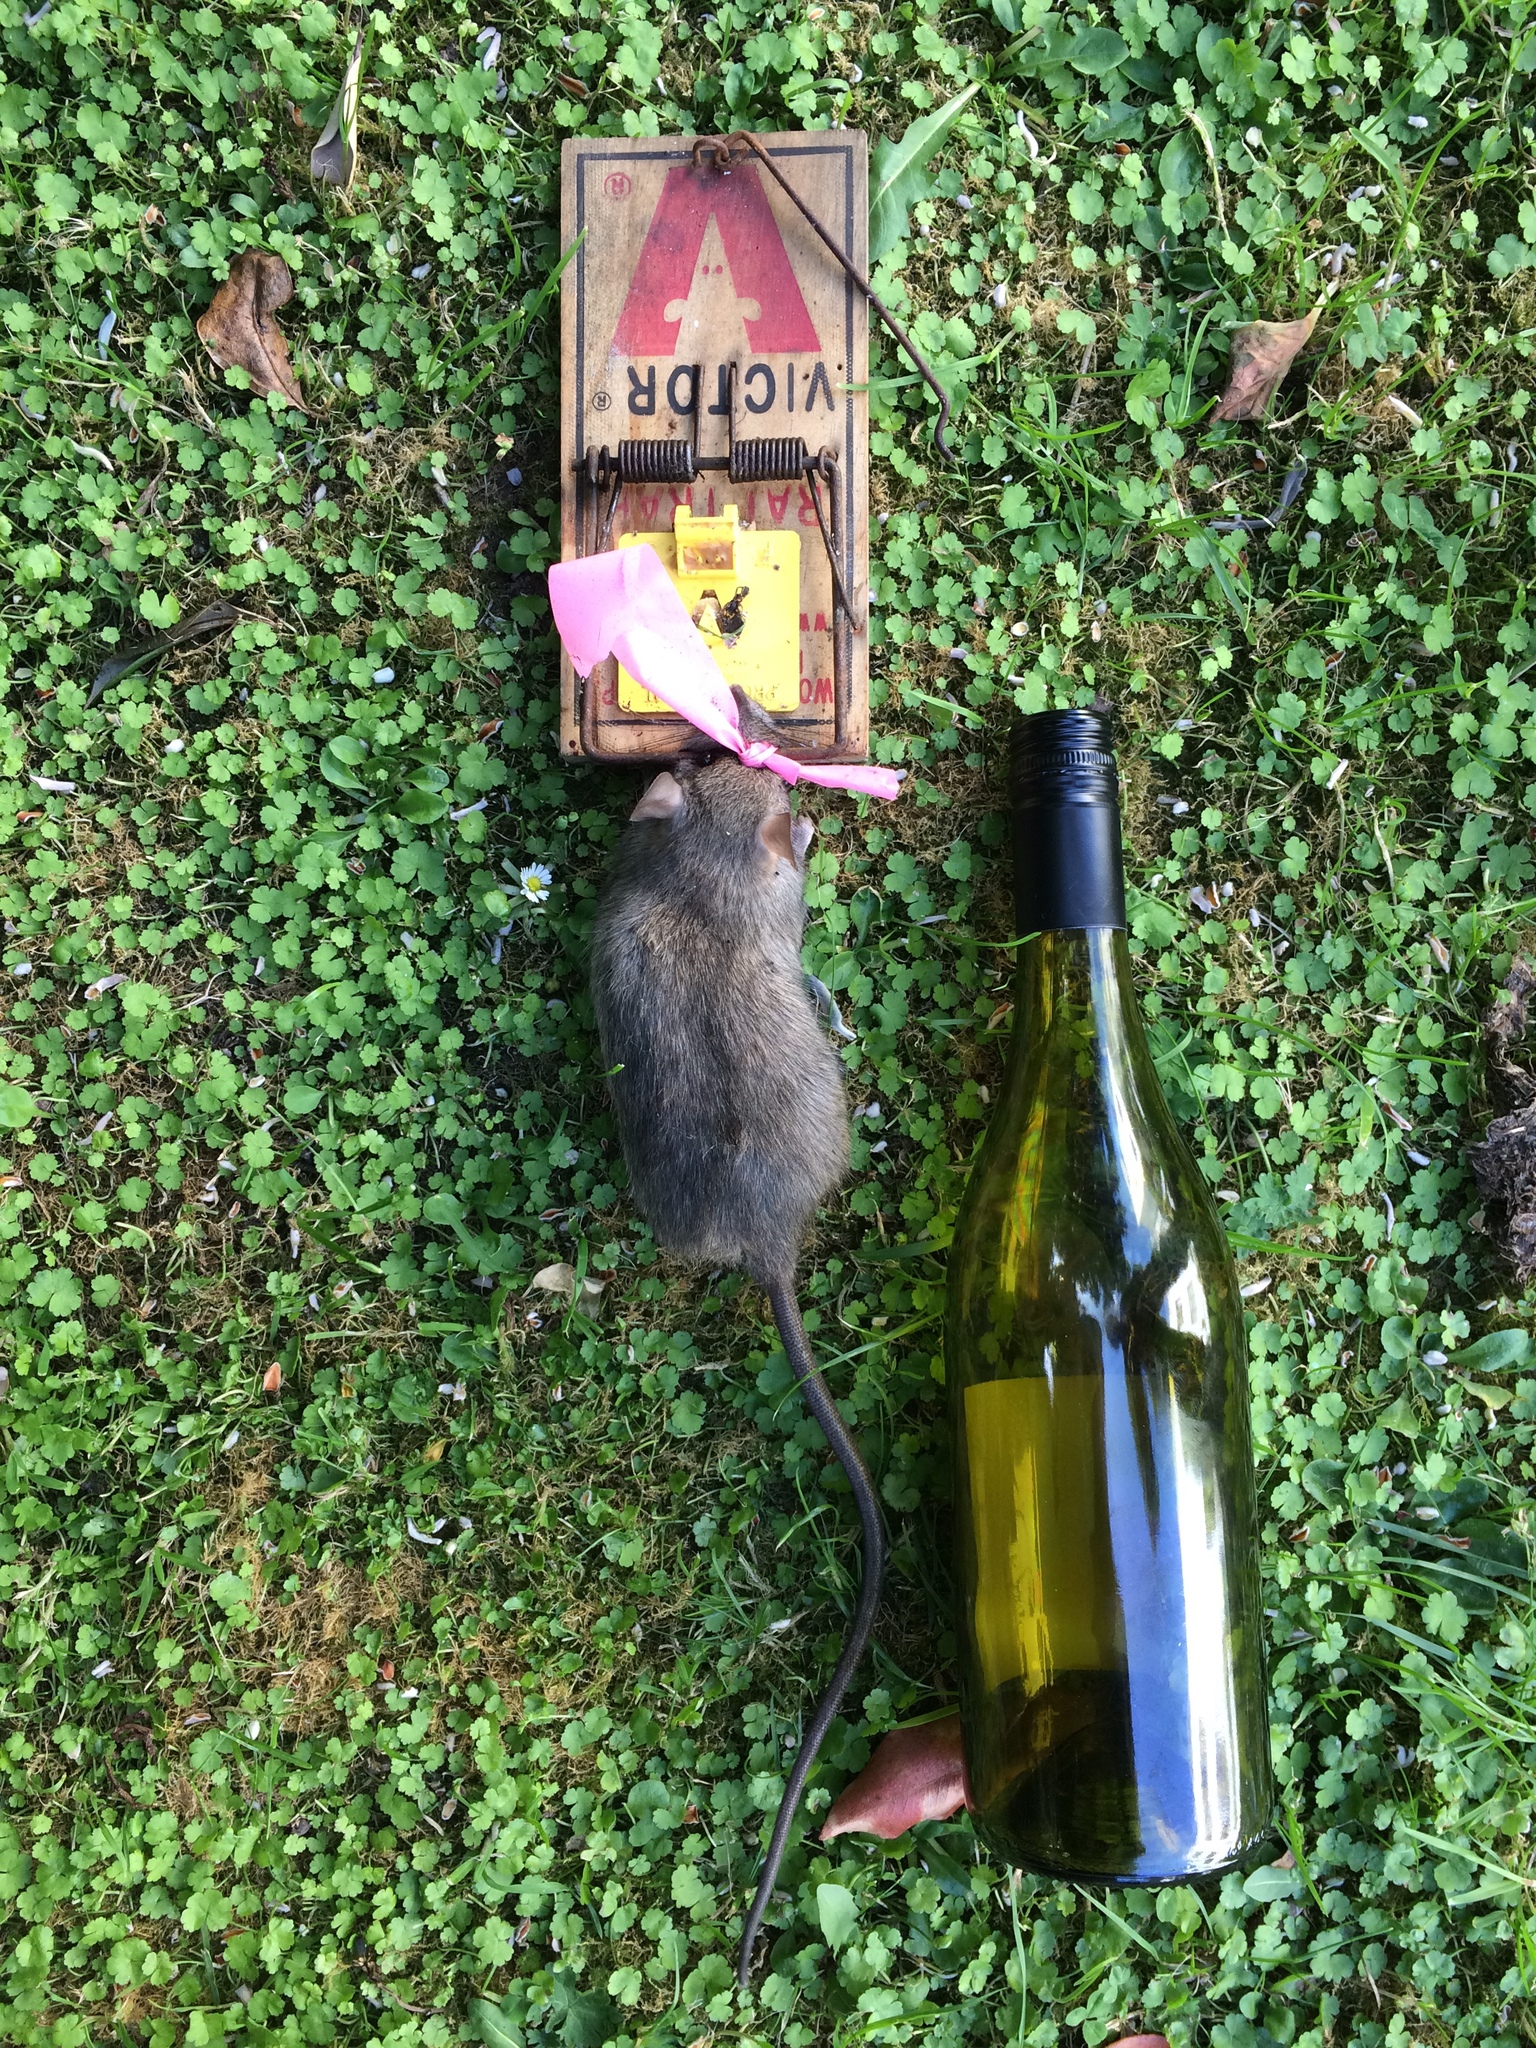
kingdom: Animalia
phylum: Chordata
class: Mammalia
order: Rodentia
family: Muridae
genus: Rattus
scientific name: Rattus rattus
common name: Black rat
